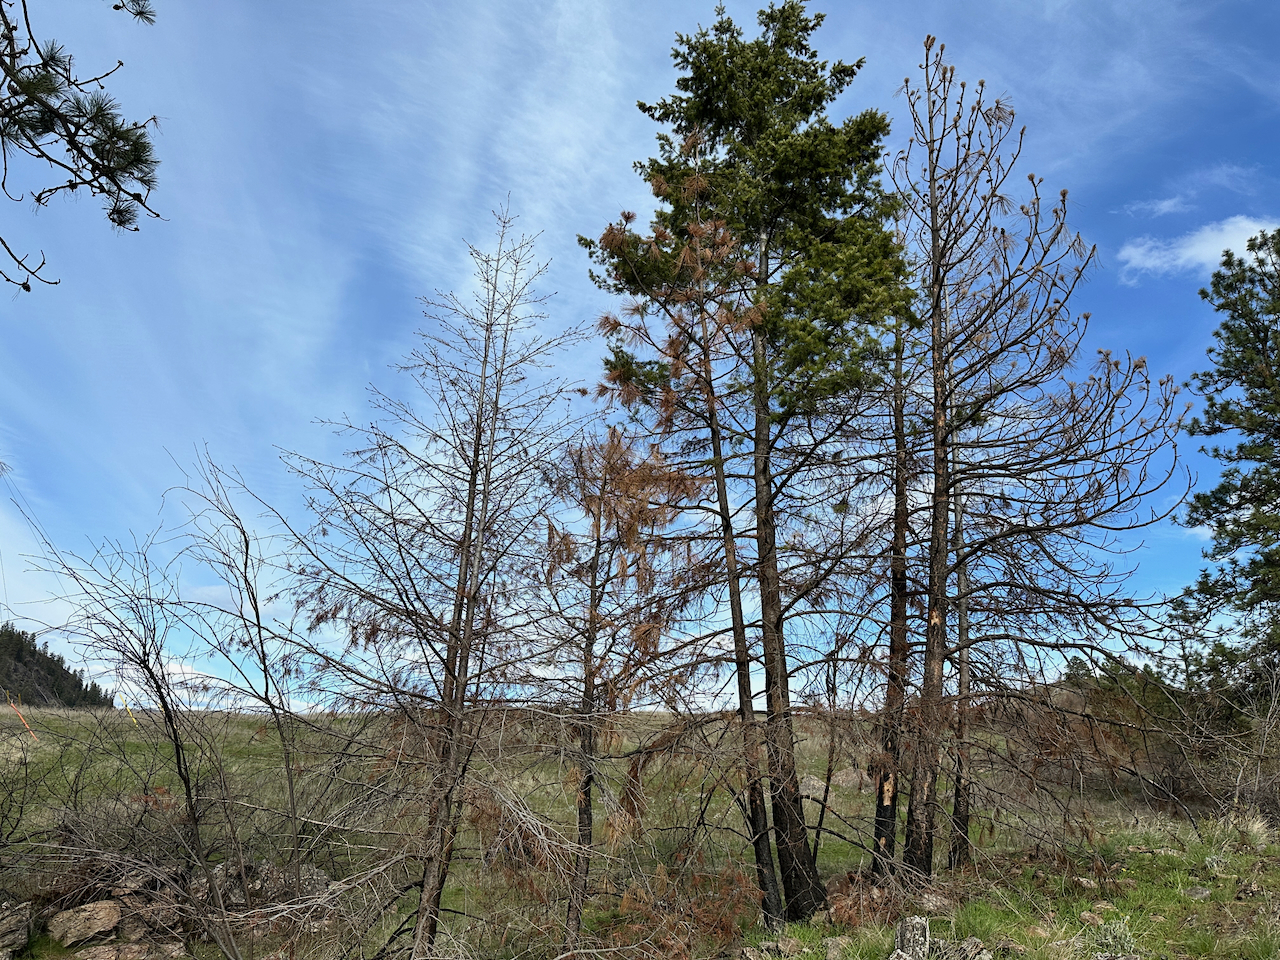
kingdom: Plantae
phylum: Tracheophyta
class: Pinopsida
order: Pinales
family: Pinaceae
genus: Pseudotsuga
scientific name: Pseudotsuga menziesii
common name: Douglas fir
